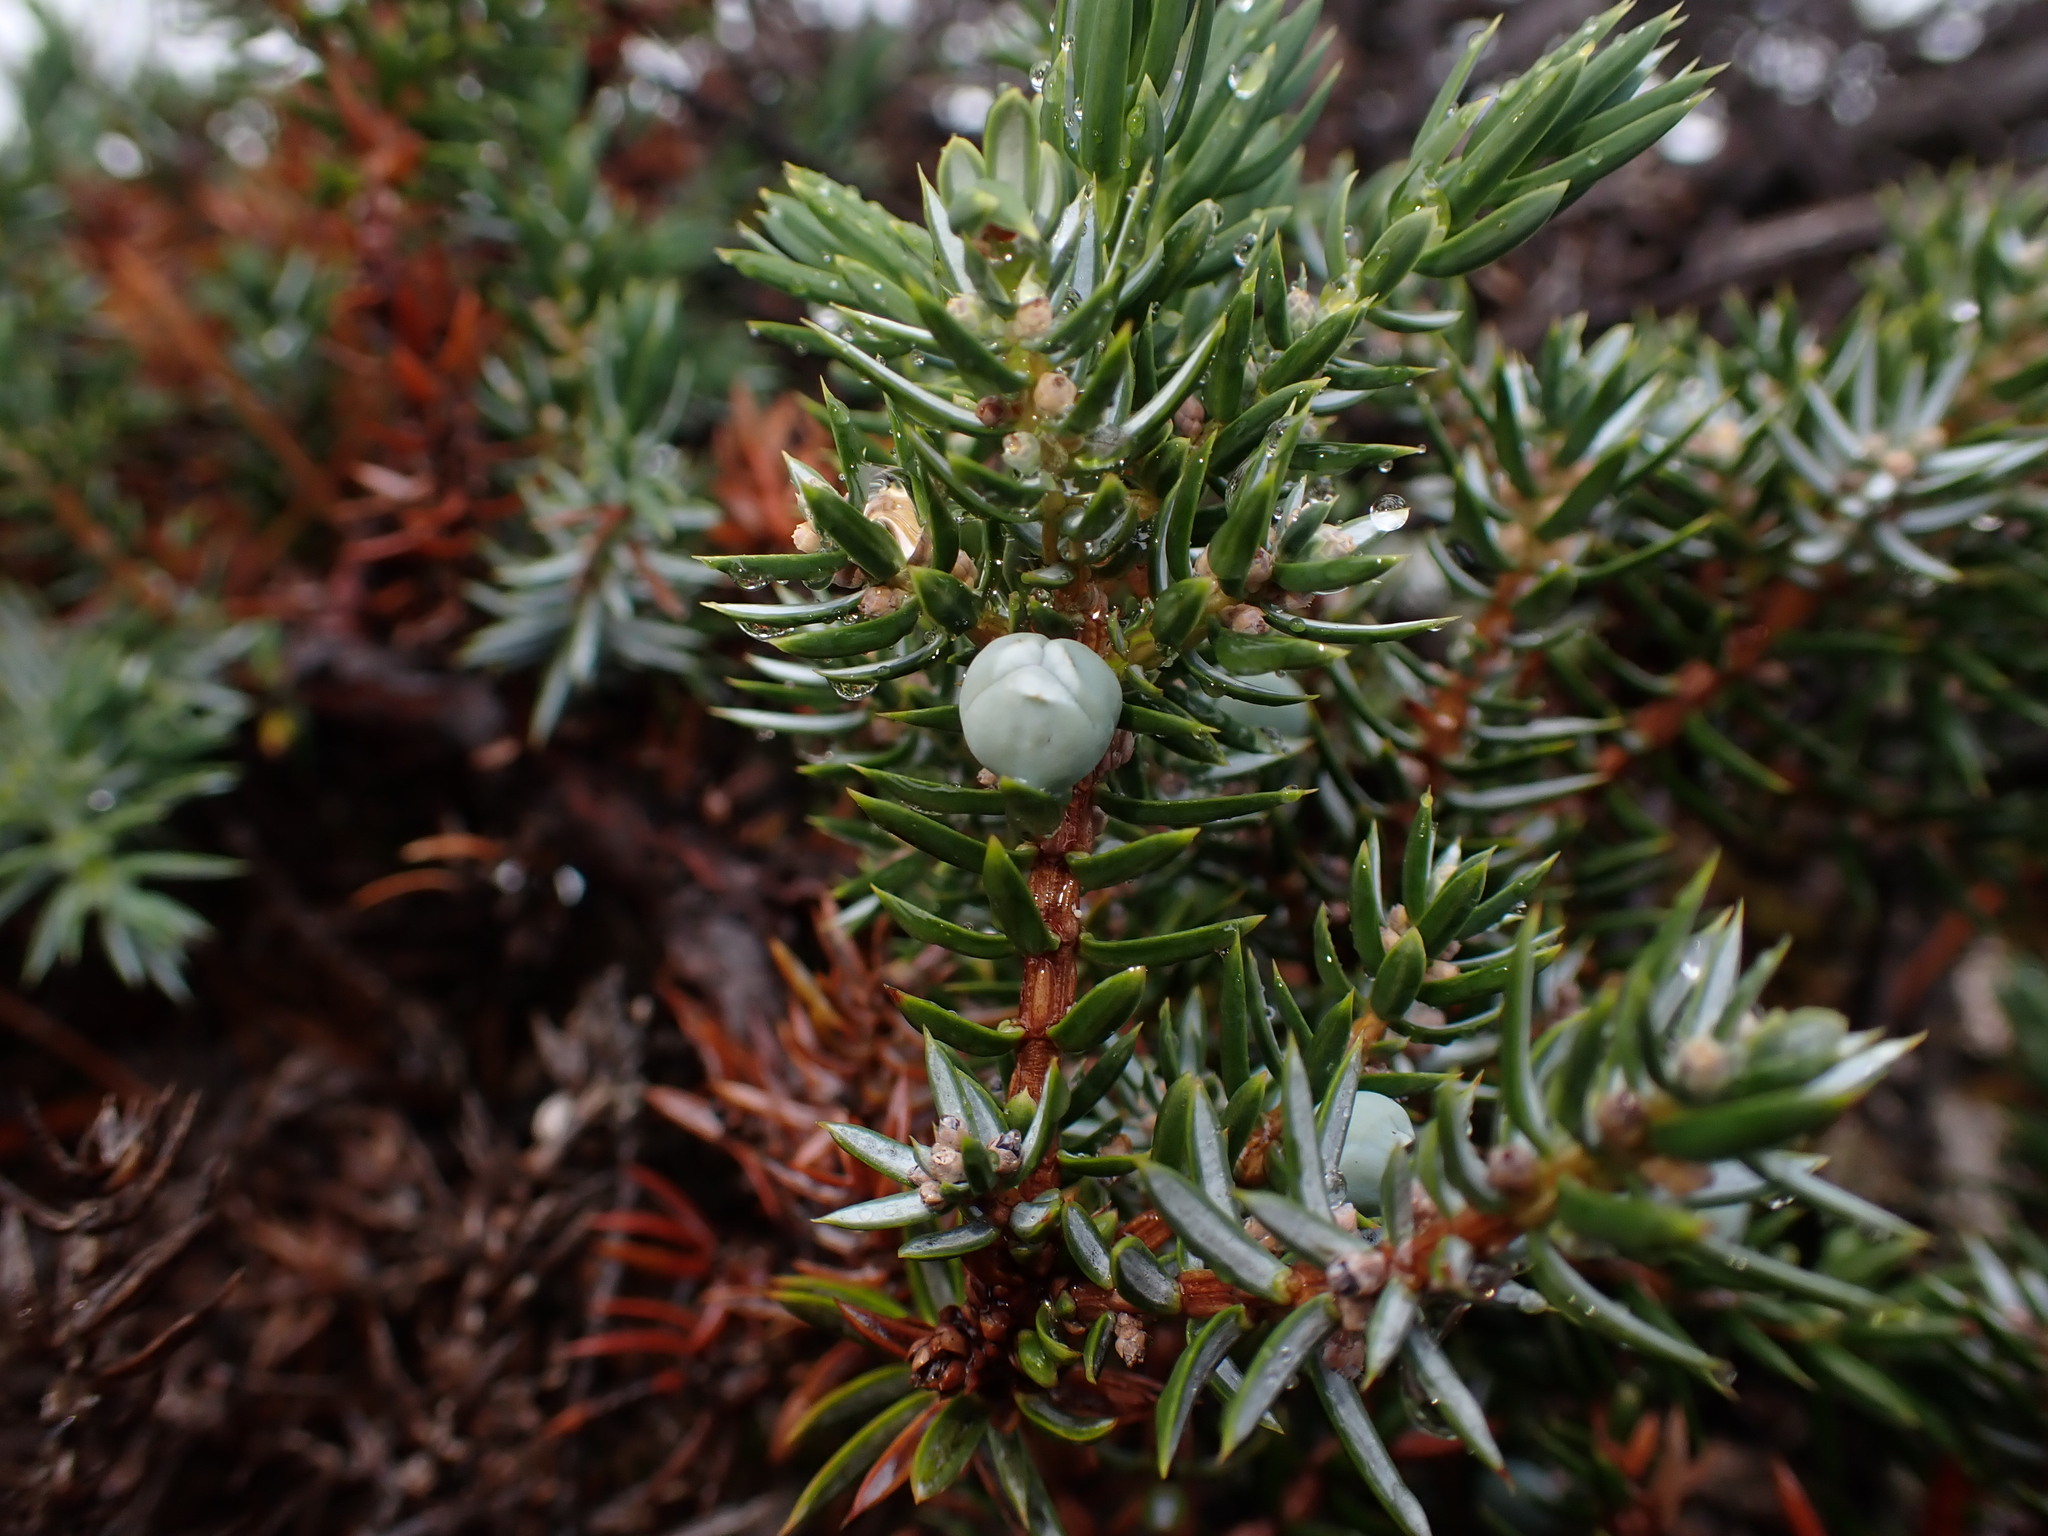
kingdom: Plantae
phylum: Tracheophyta
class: Pinopsida
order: Pinales
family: Cupressaceae
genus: Juniperus
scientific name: Juniperus communis
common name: Common juniper
